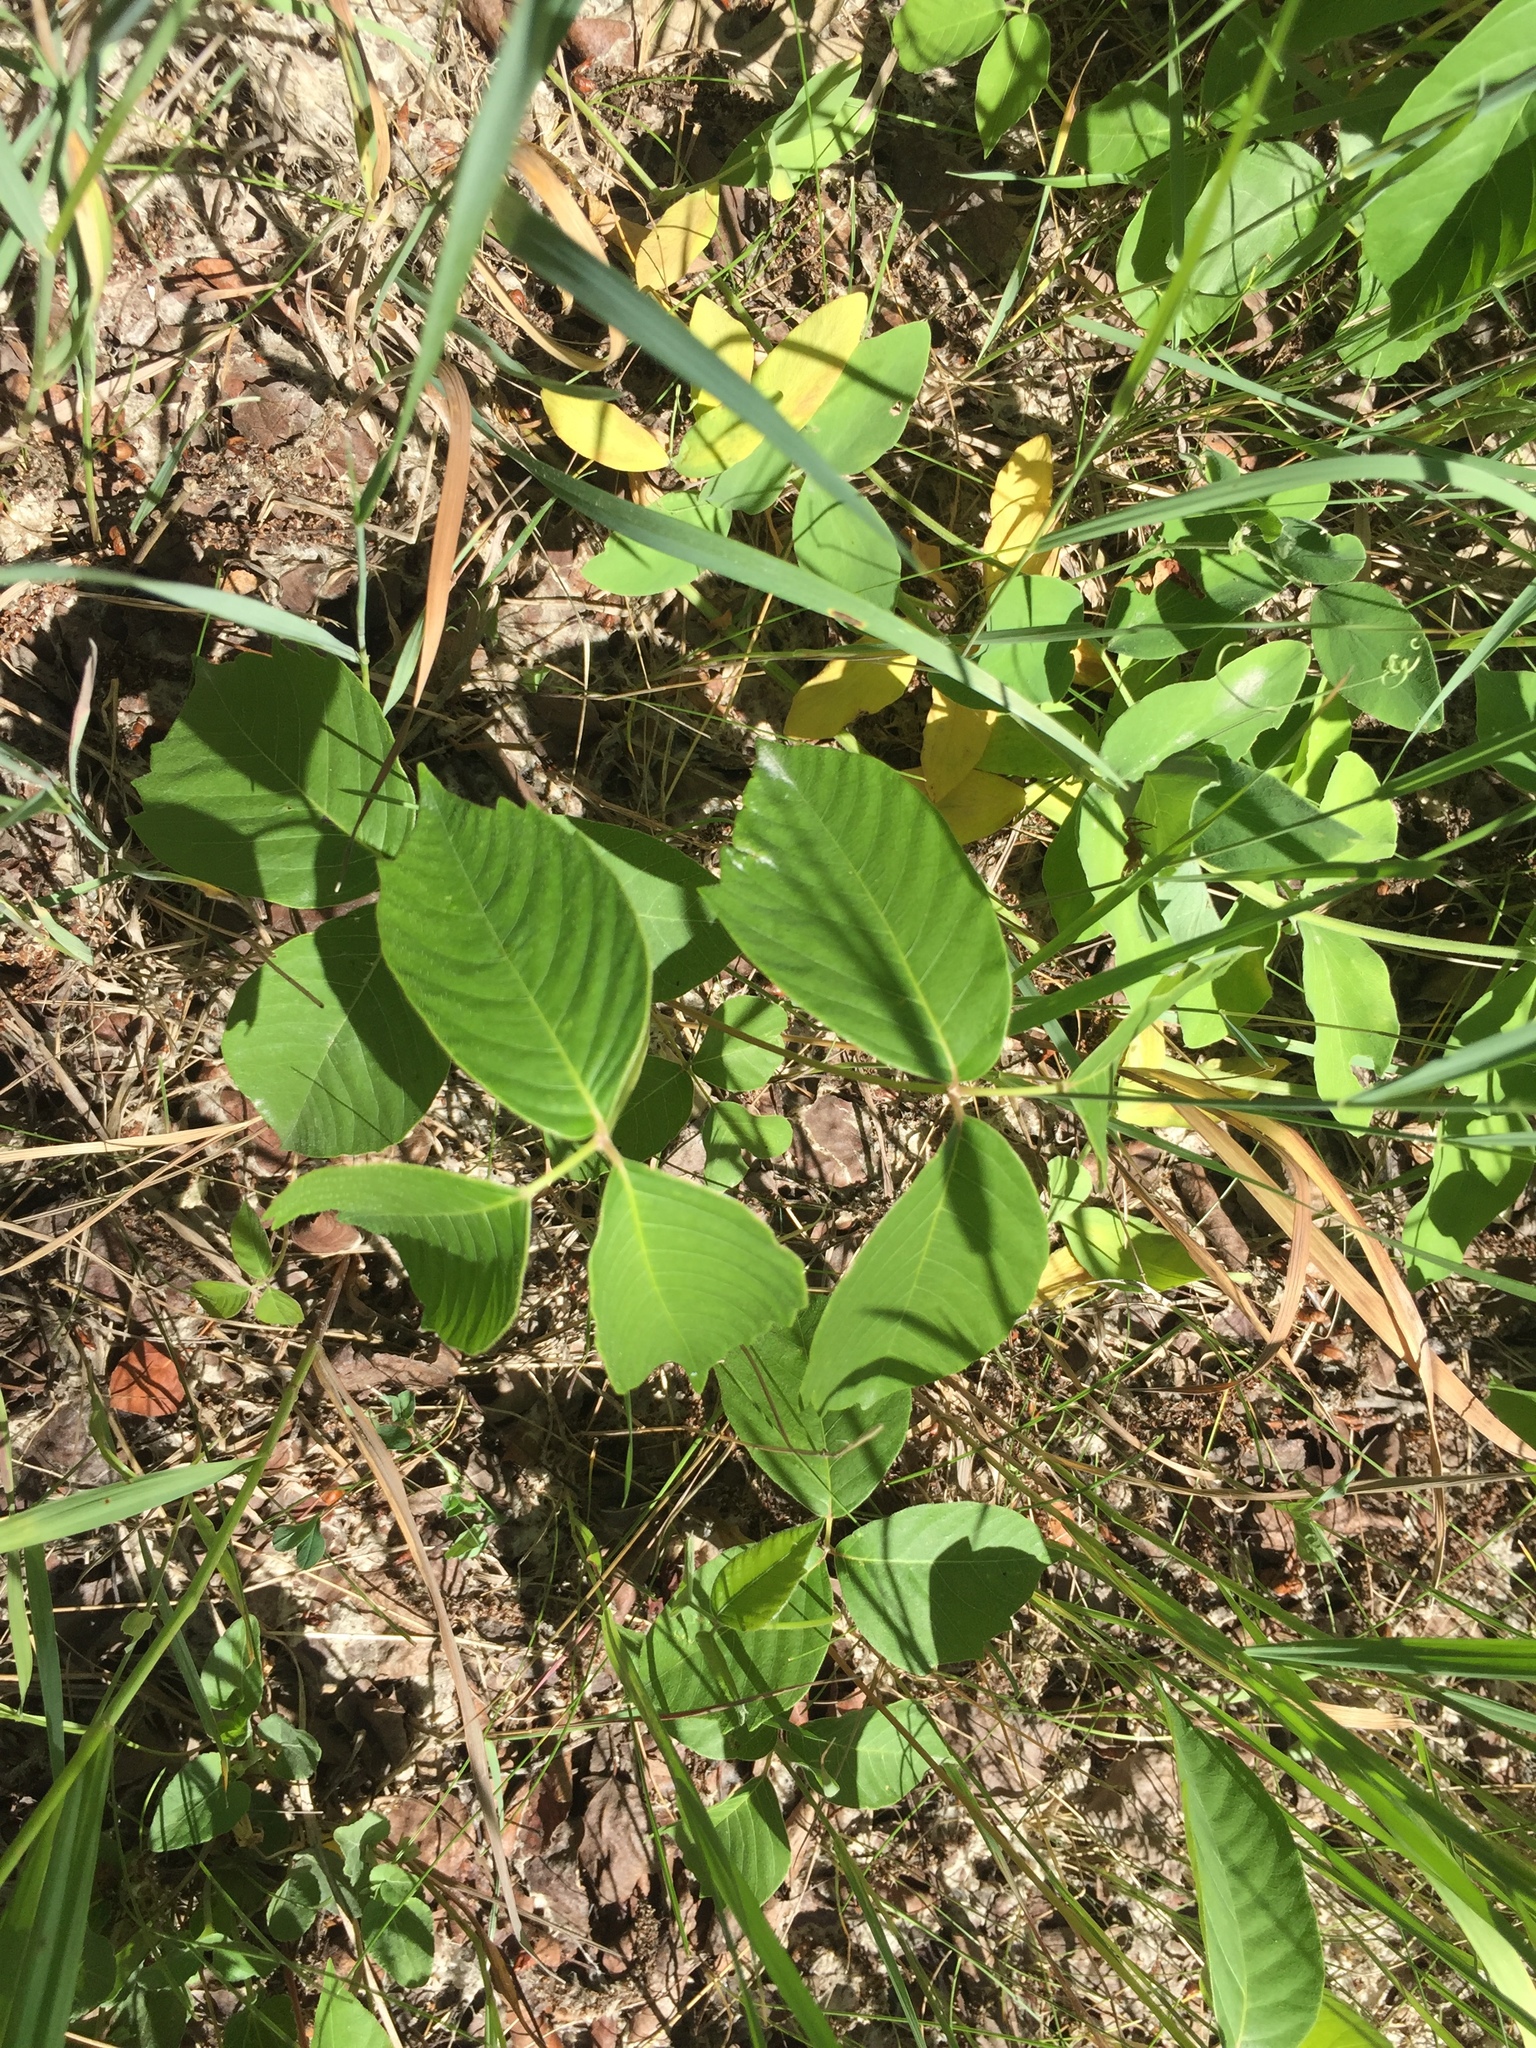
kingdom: Plantae
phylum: Tracheophyta
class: Magnoliopsida
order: Sapindales
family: Anacardiaceae
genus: Toxicodendron
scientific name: Toxicodendron rydbergii
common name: Rydberg's poison-ivy
